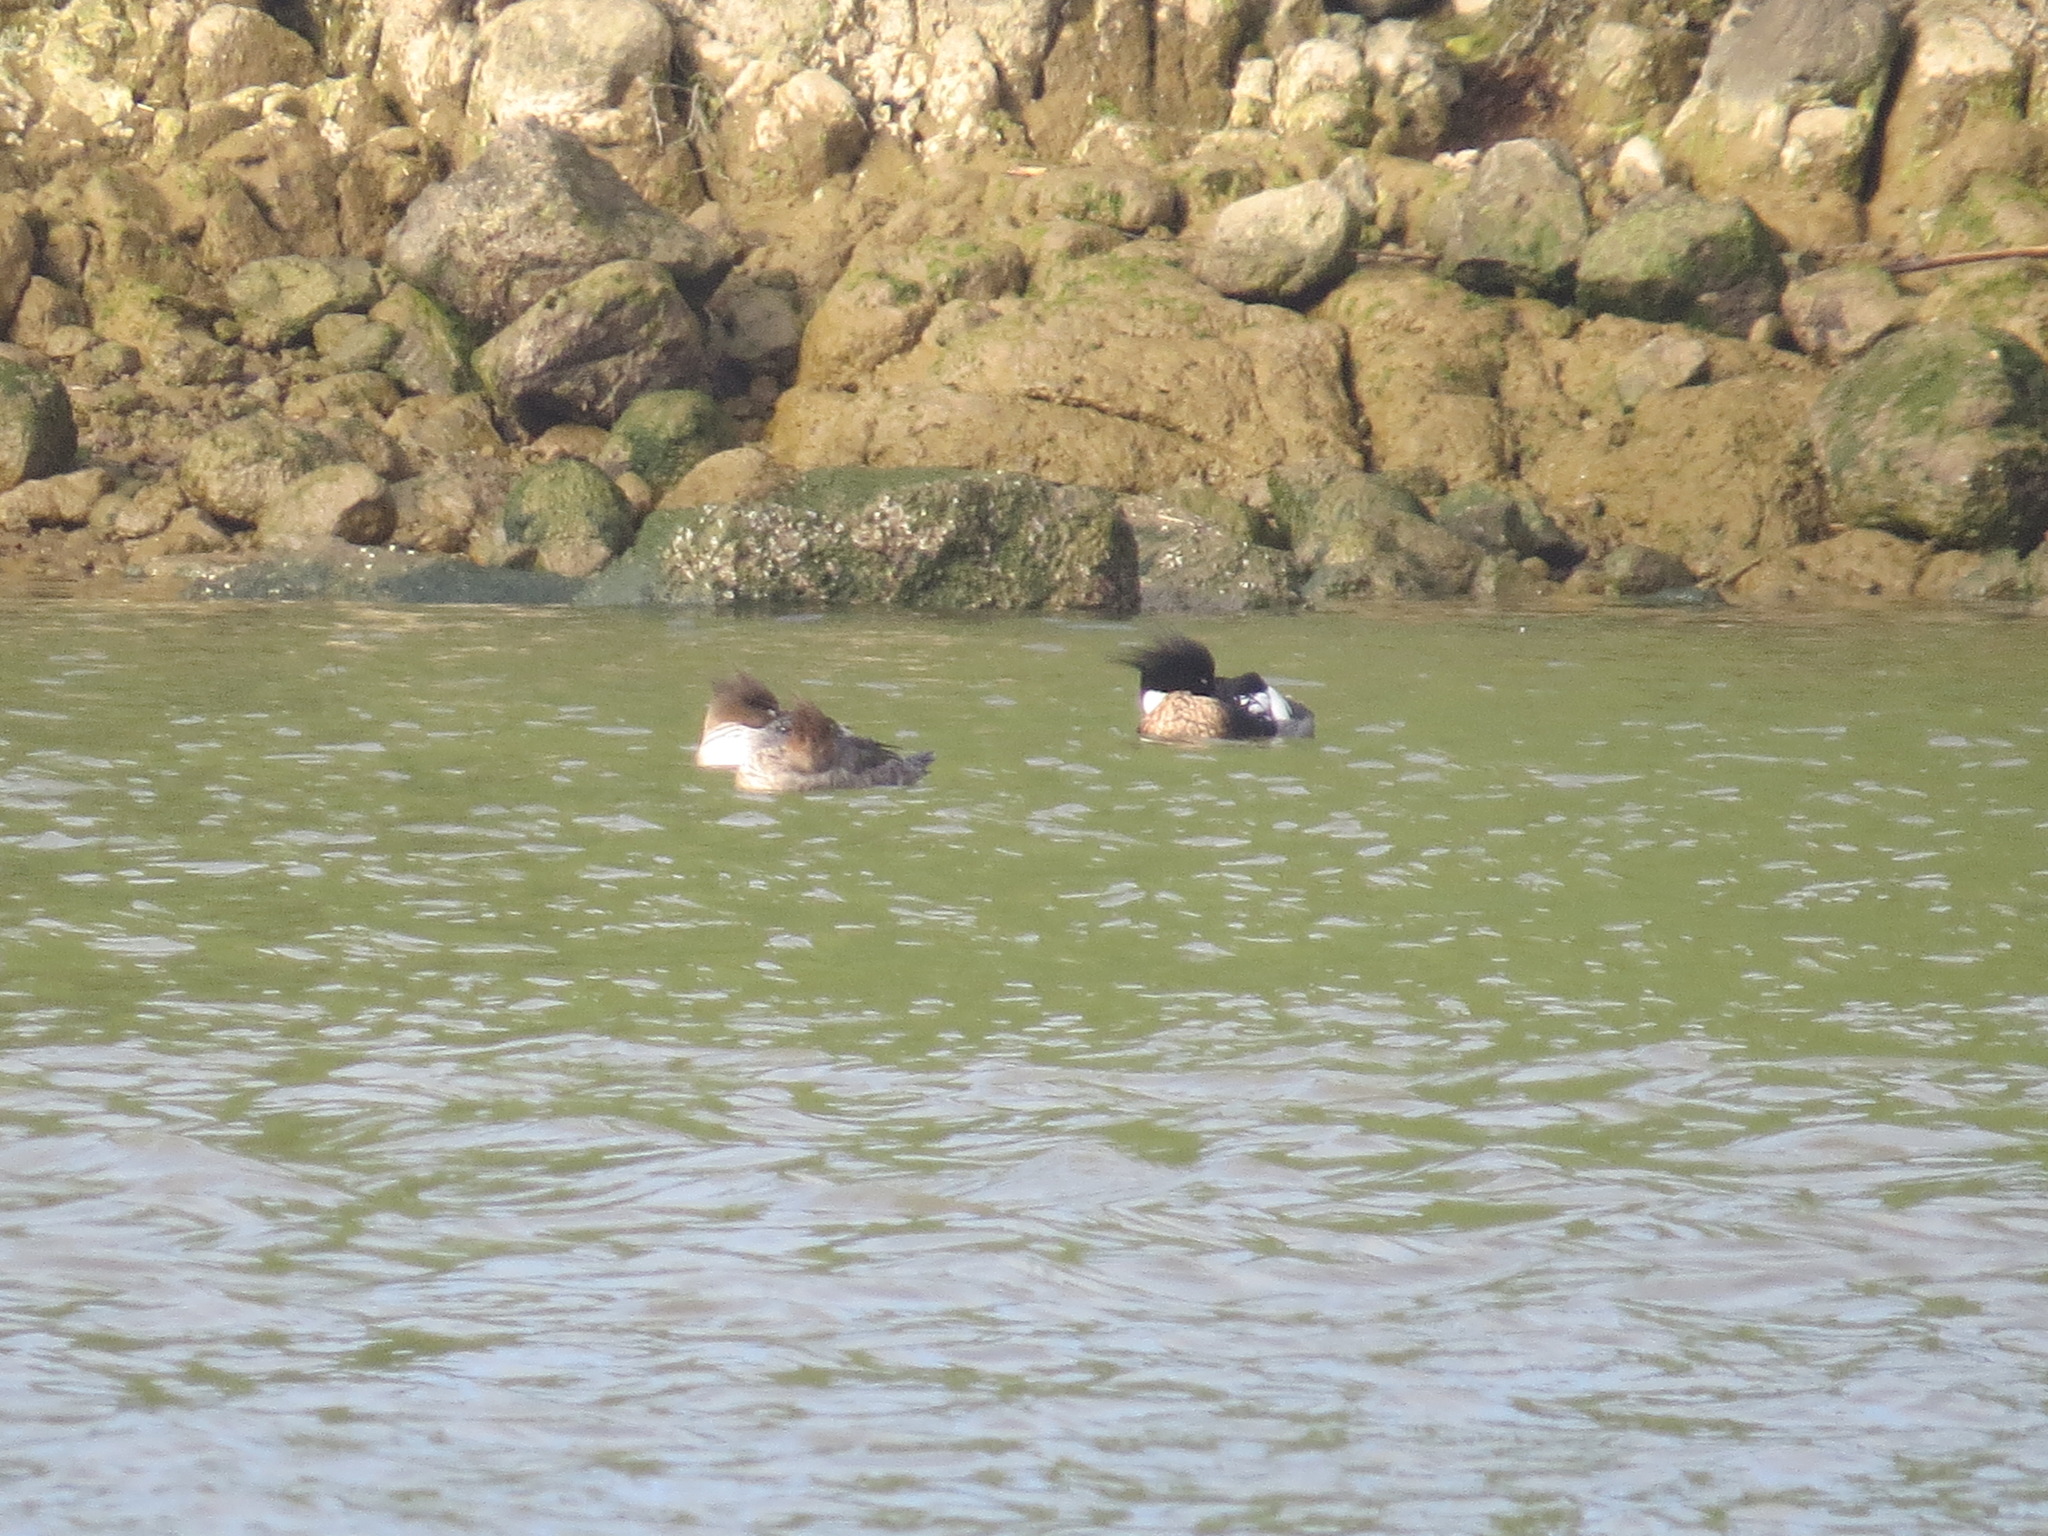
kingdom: Animalia
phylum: Chordata
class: Aves
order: Anseriformes
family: Anatidae
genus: Mergus
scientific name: Mergus serrator
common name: Red-breasted merganser
